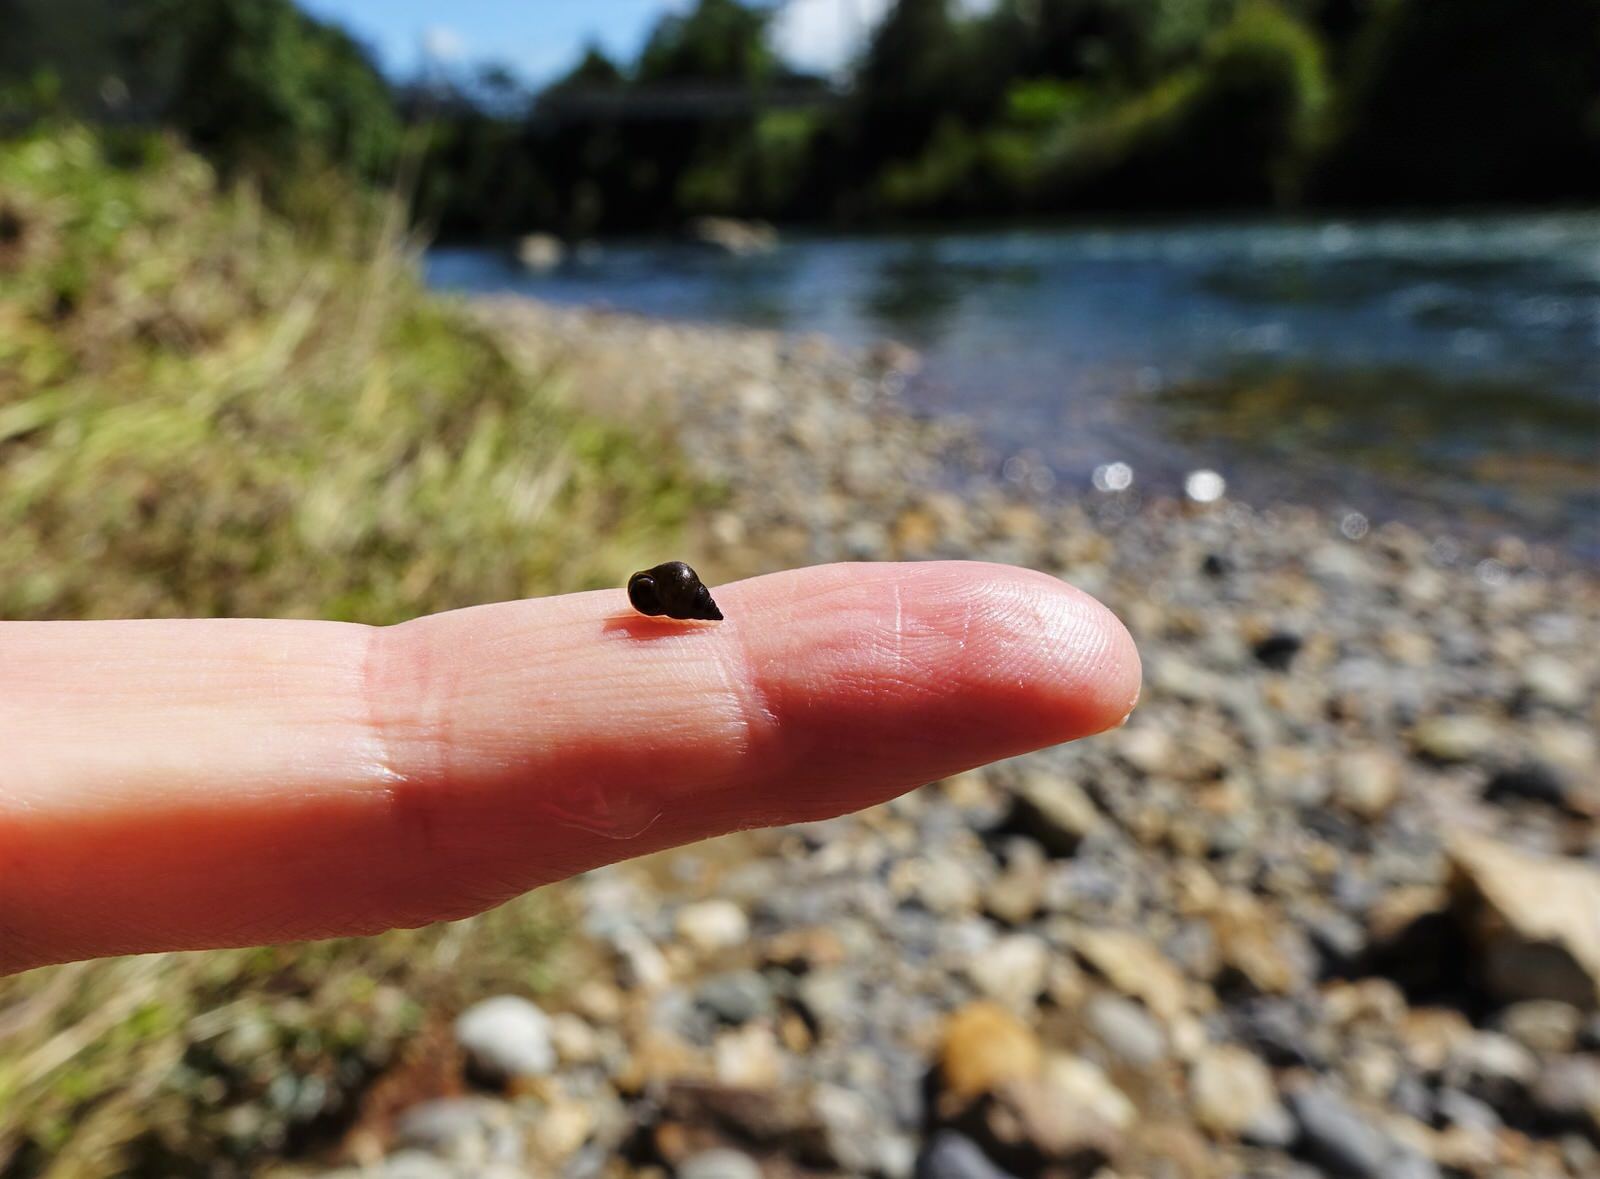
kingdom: Animalia
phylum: Mollusca
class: Gastropoda
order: Littorinimorpha
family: Tateidae
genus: Potamopyrgus
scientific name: Potamopyrgus antipodarum
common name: Jenkins' spire snail
